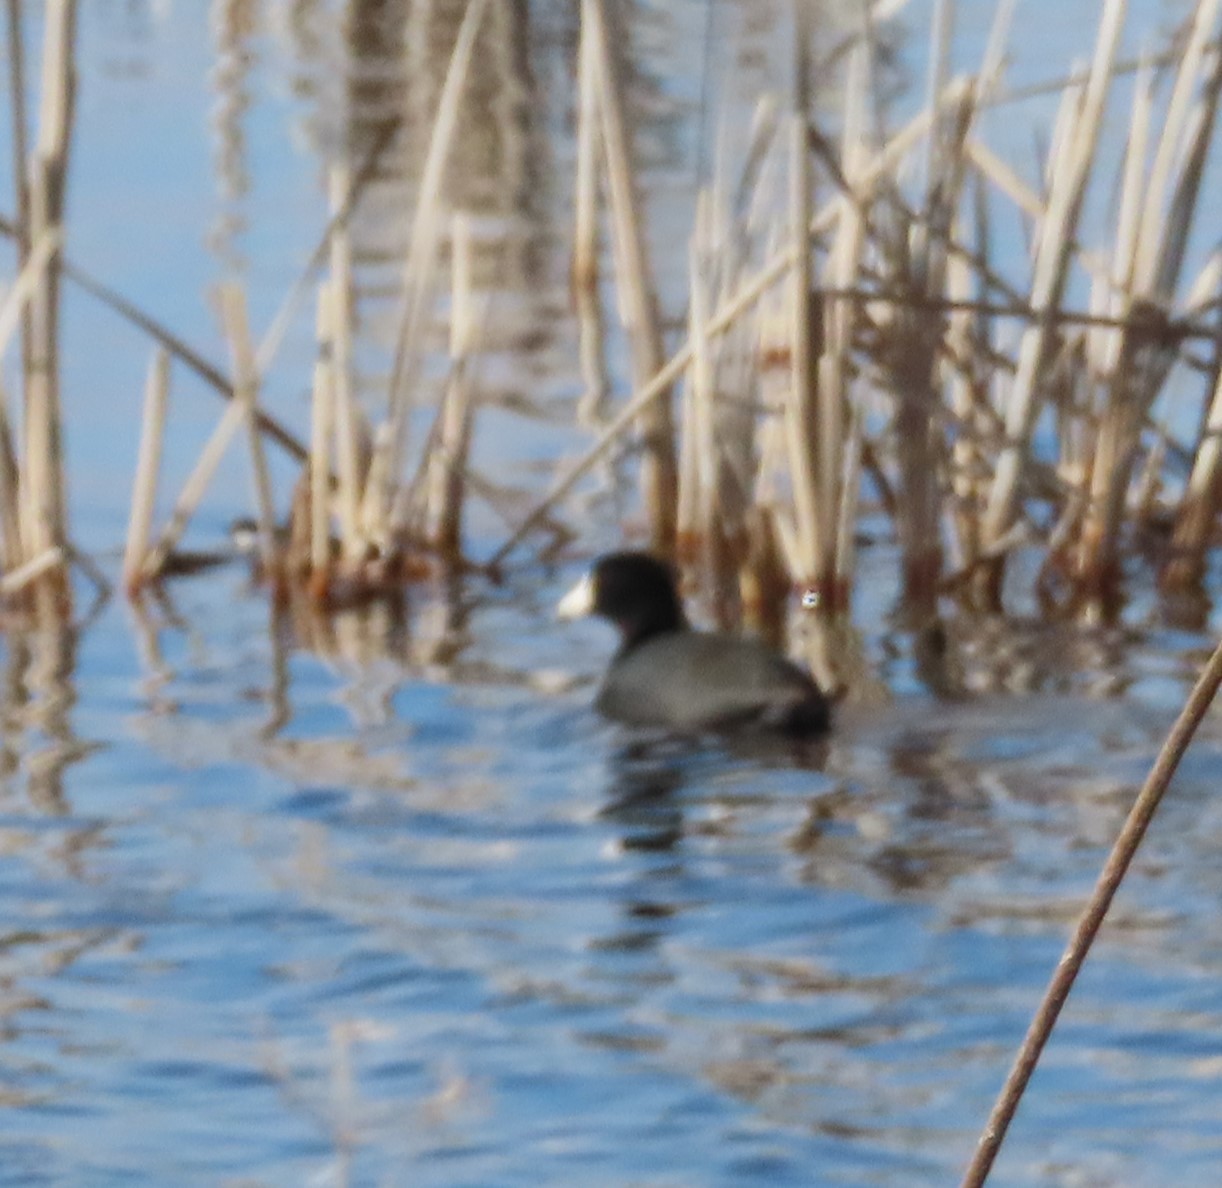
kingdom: Animalia
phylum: Chordata
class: Aves
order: Gruiformes
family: Rallidae
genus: Fulica
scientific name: Fulica americana
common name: American coot
